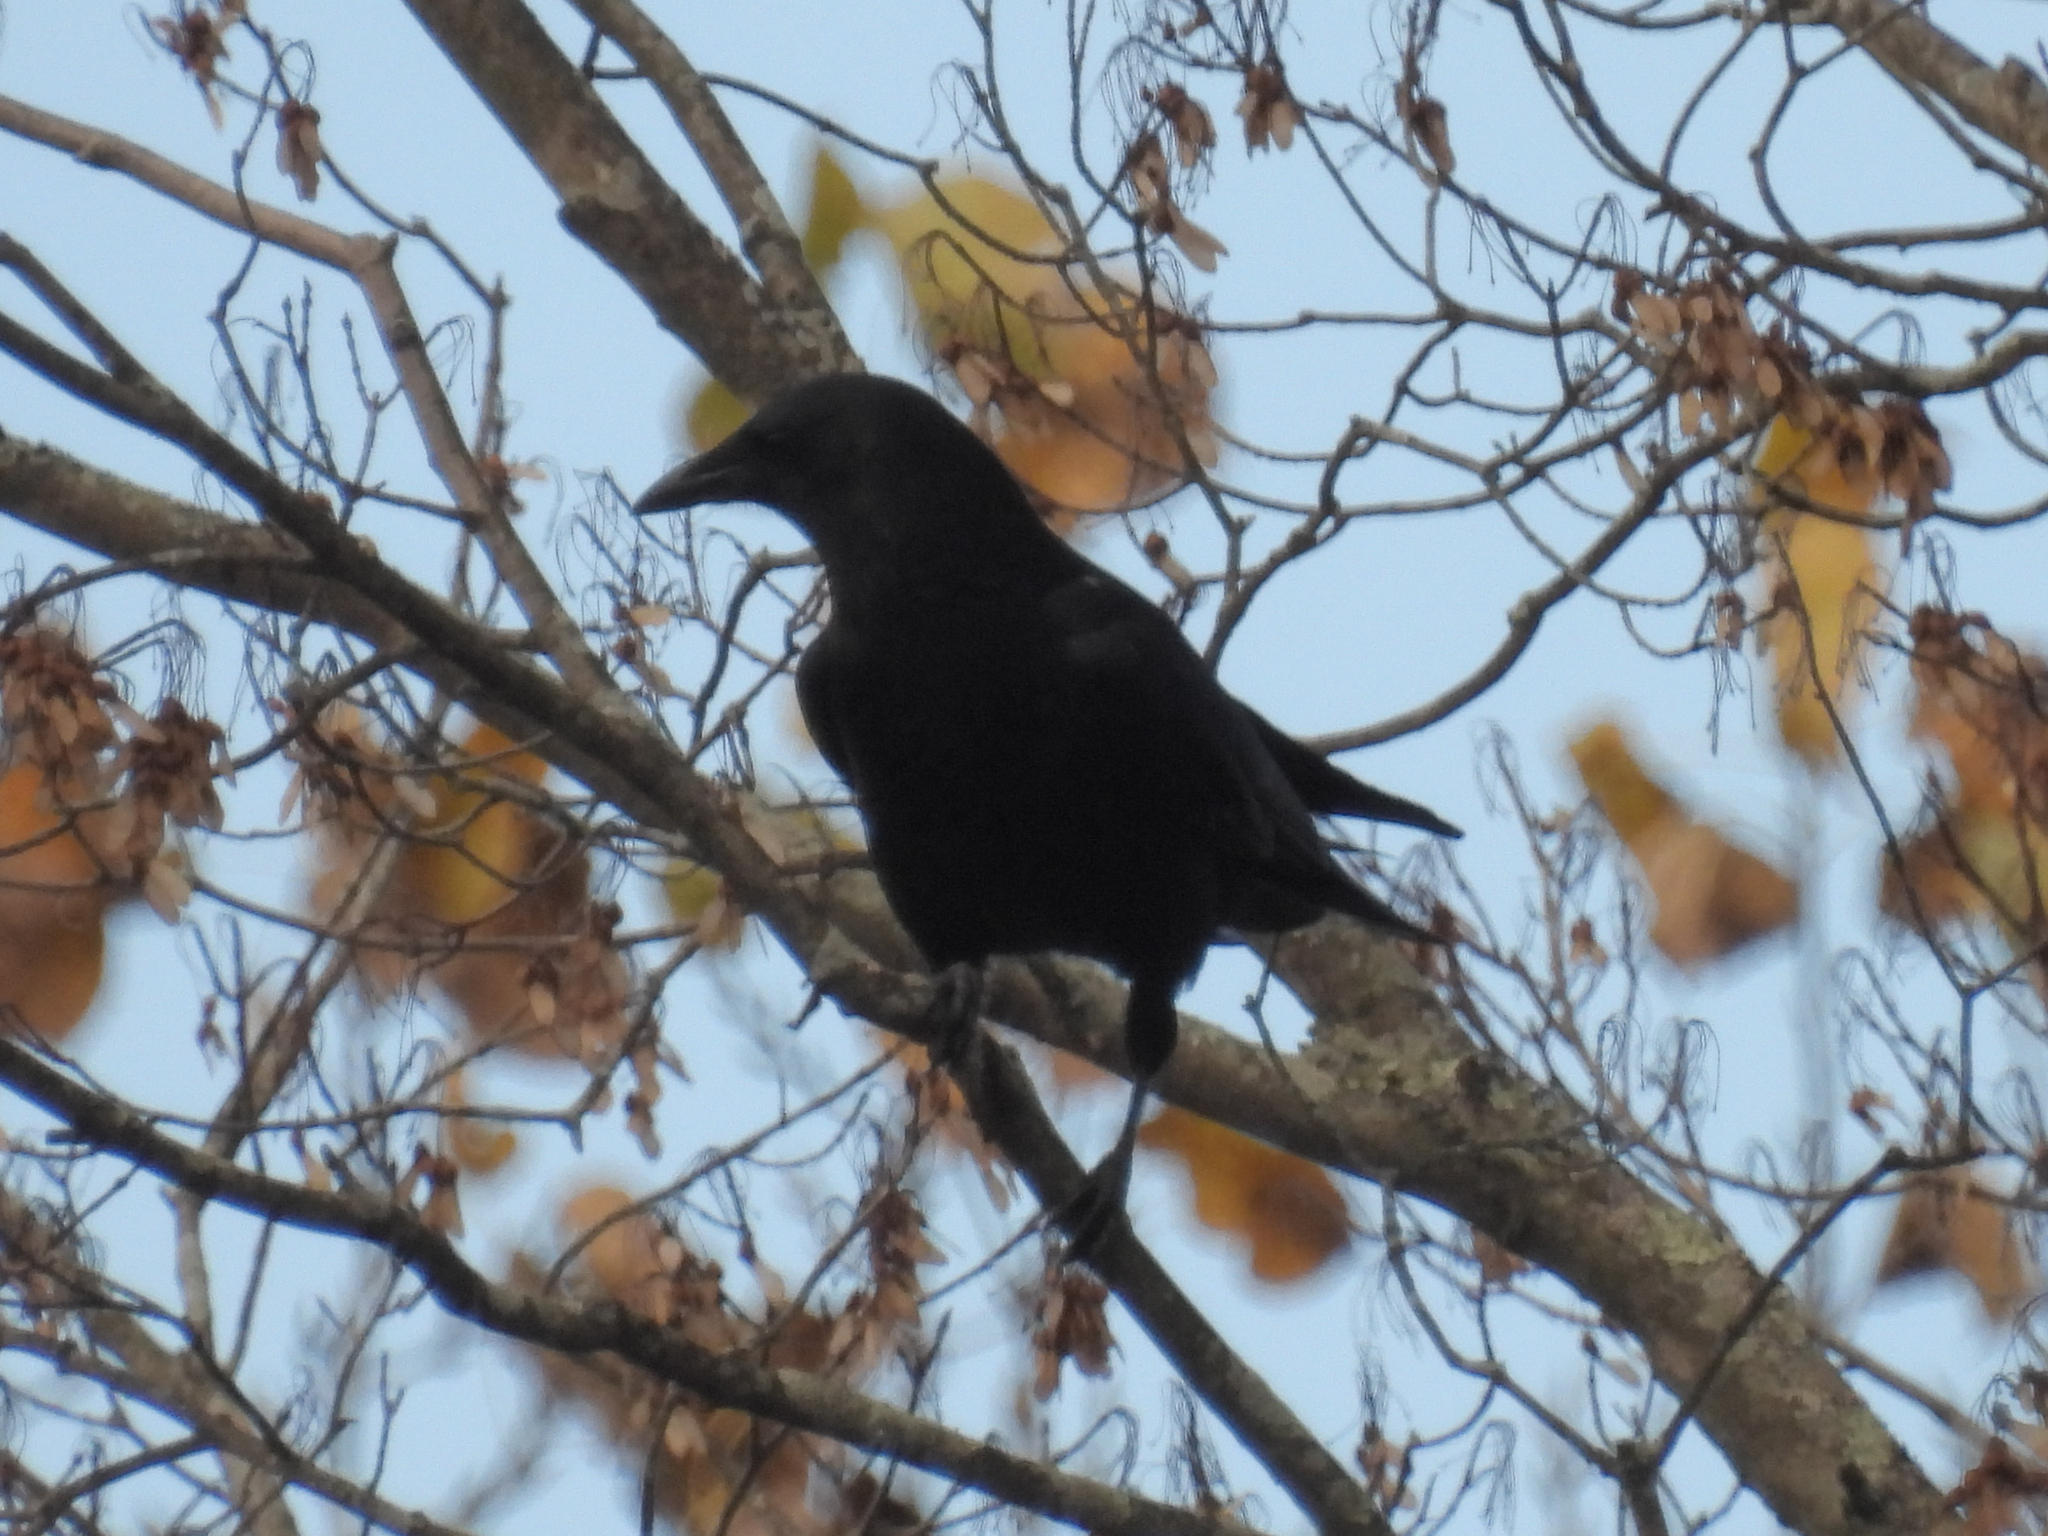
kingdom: Animalia
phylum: Chordata
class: Aves
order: Passeriformes
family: Corvidae
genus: Corvus
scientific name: Corvus brachyrhynchos
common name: American crow
